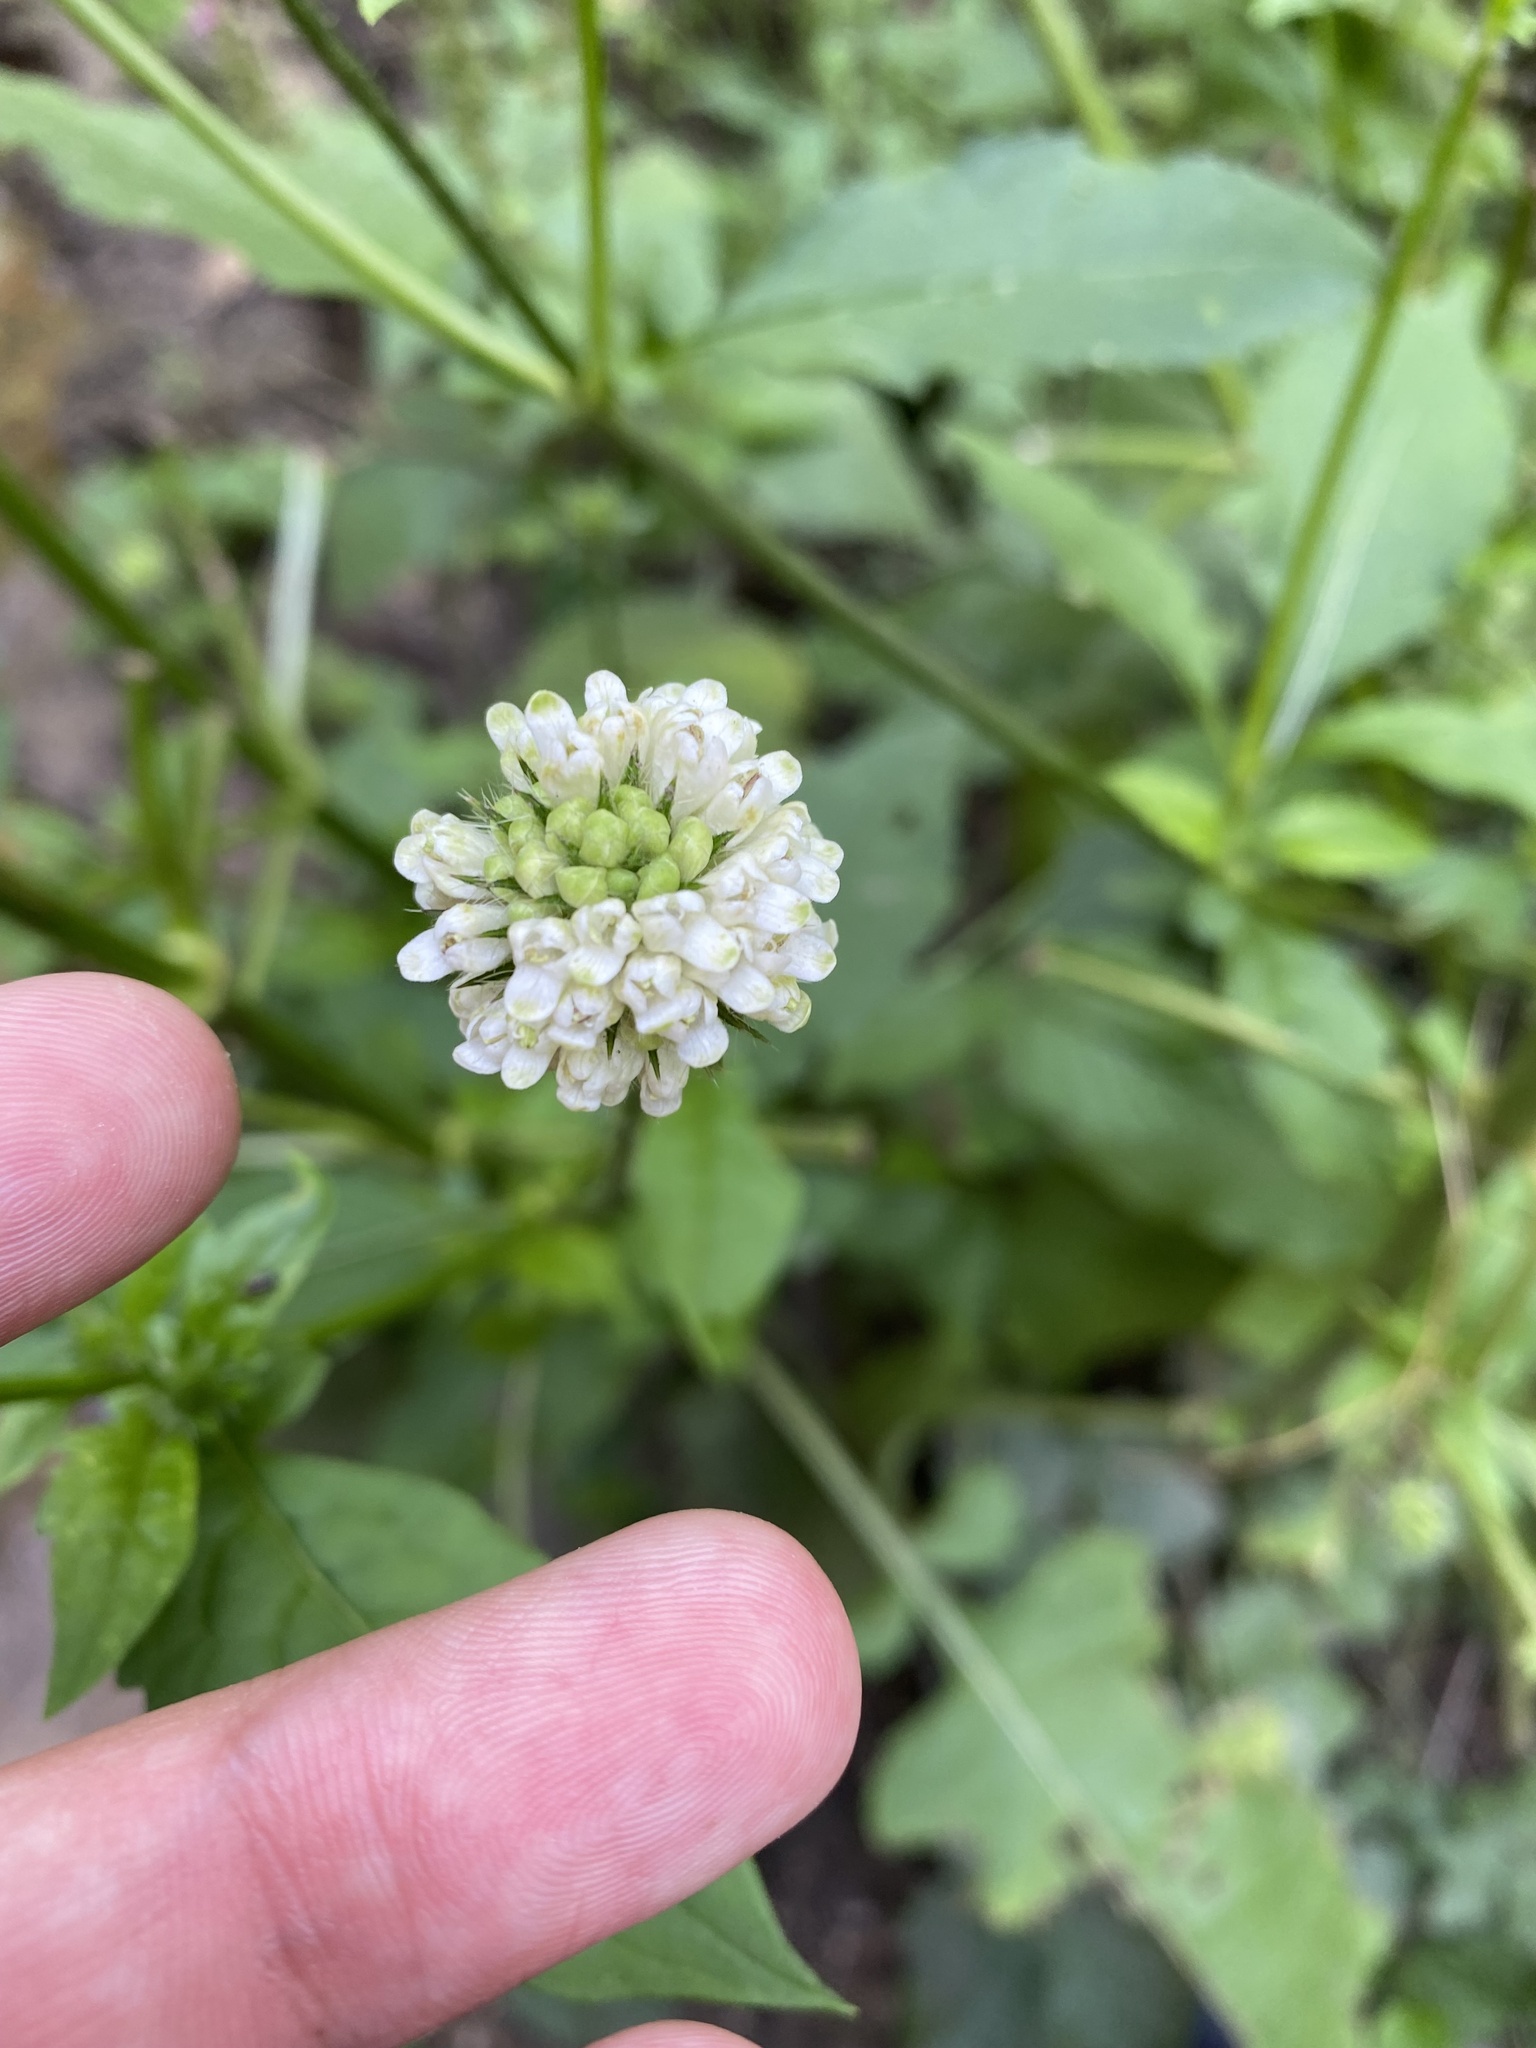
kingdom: Plantae
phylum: Tracheophyta
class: Magnoliopsida
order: Dipsacales
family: Caprifoliaceae
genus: Dipsacus
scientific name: Dipsacus pilosus
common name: Small teasel
